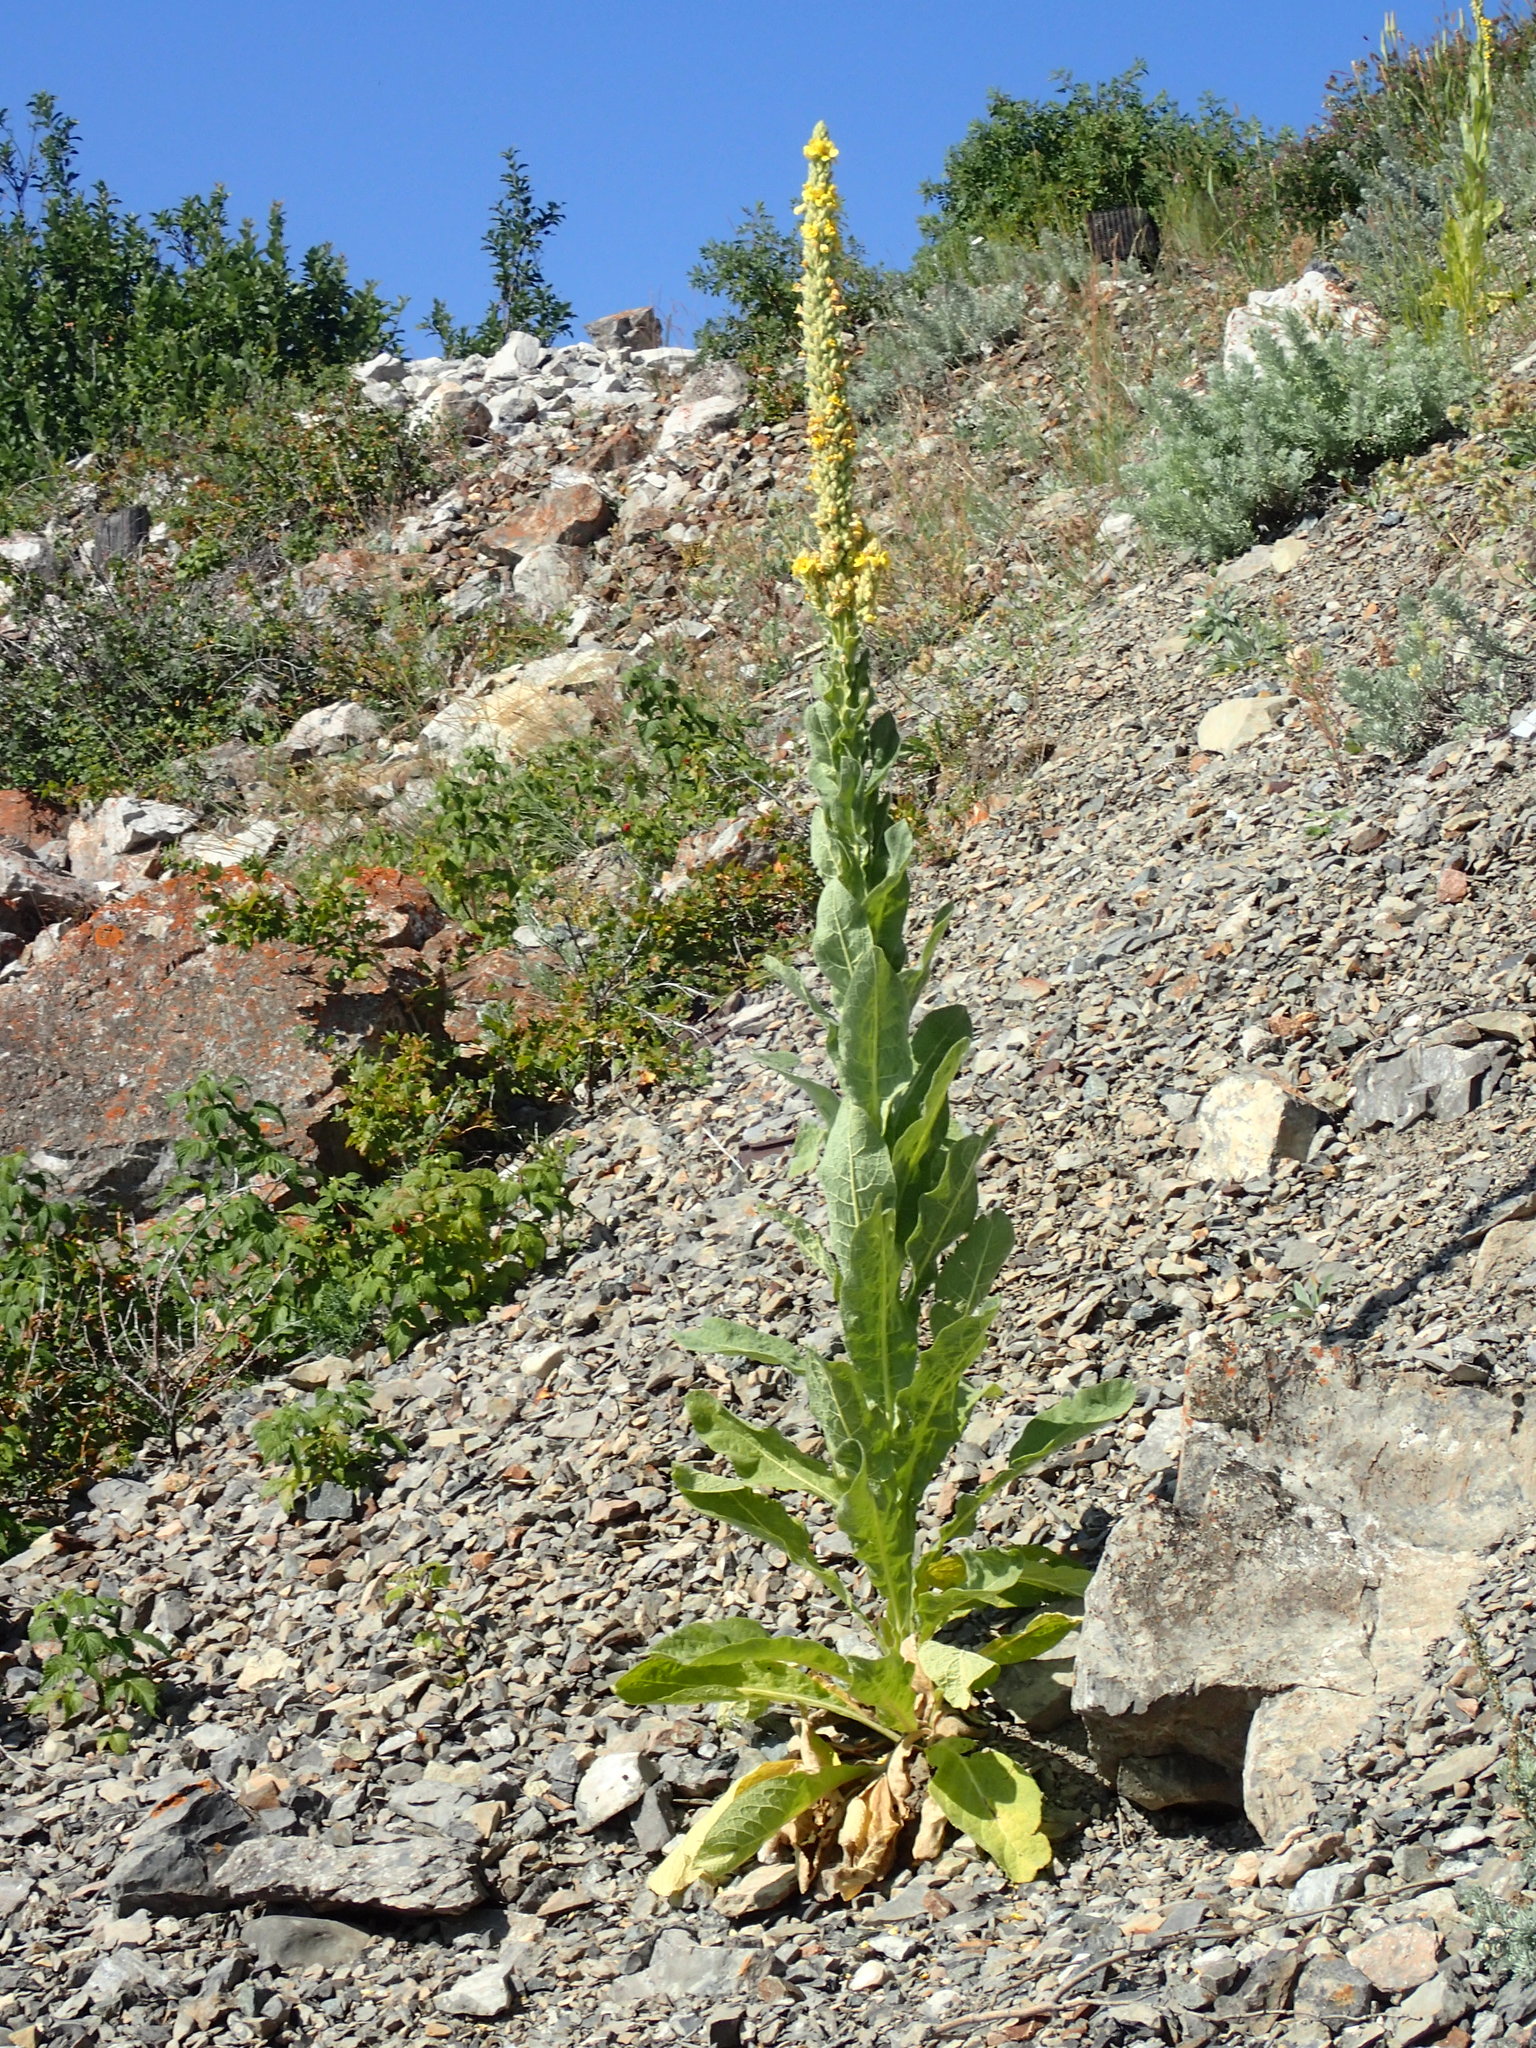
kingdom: Plantae
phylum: Tracheophyta
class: Magnoliopsida
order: Lamiales
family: Scrophulariaceae
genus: Verbascum
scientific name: Verbascum thapsus
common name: Common mullein
